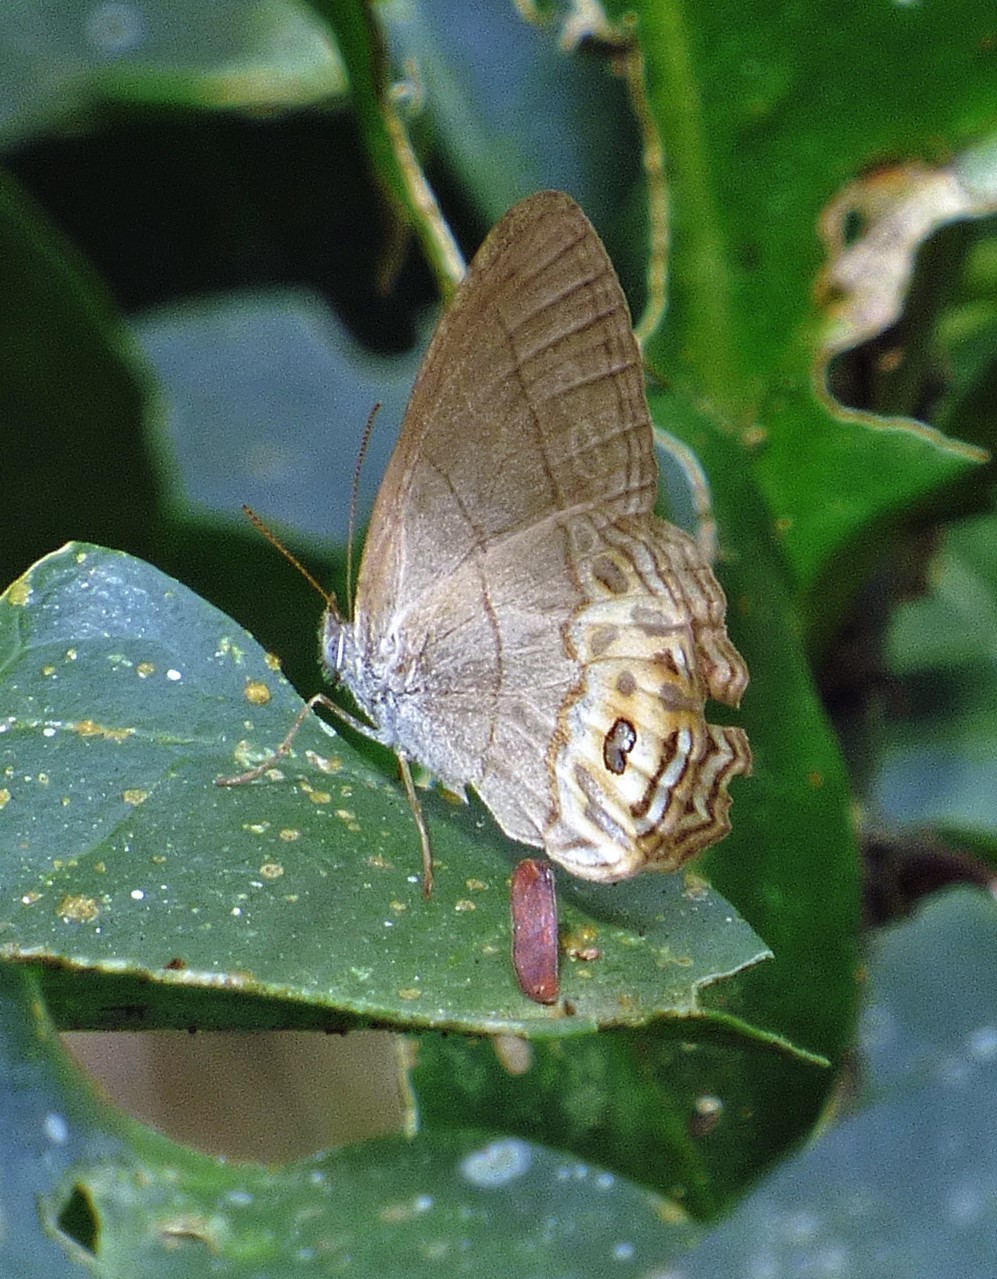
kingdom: Animalia
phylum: Arthropoda
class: Insecta
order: Lepidoptera
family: Nymphalidae
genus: Splendeuptychia
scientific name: Splendeuptychia libitina
